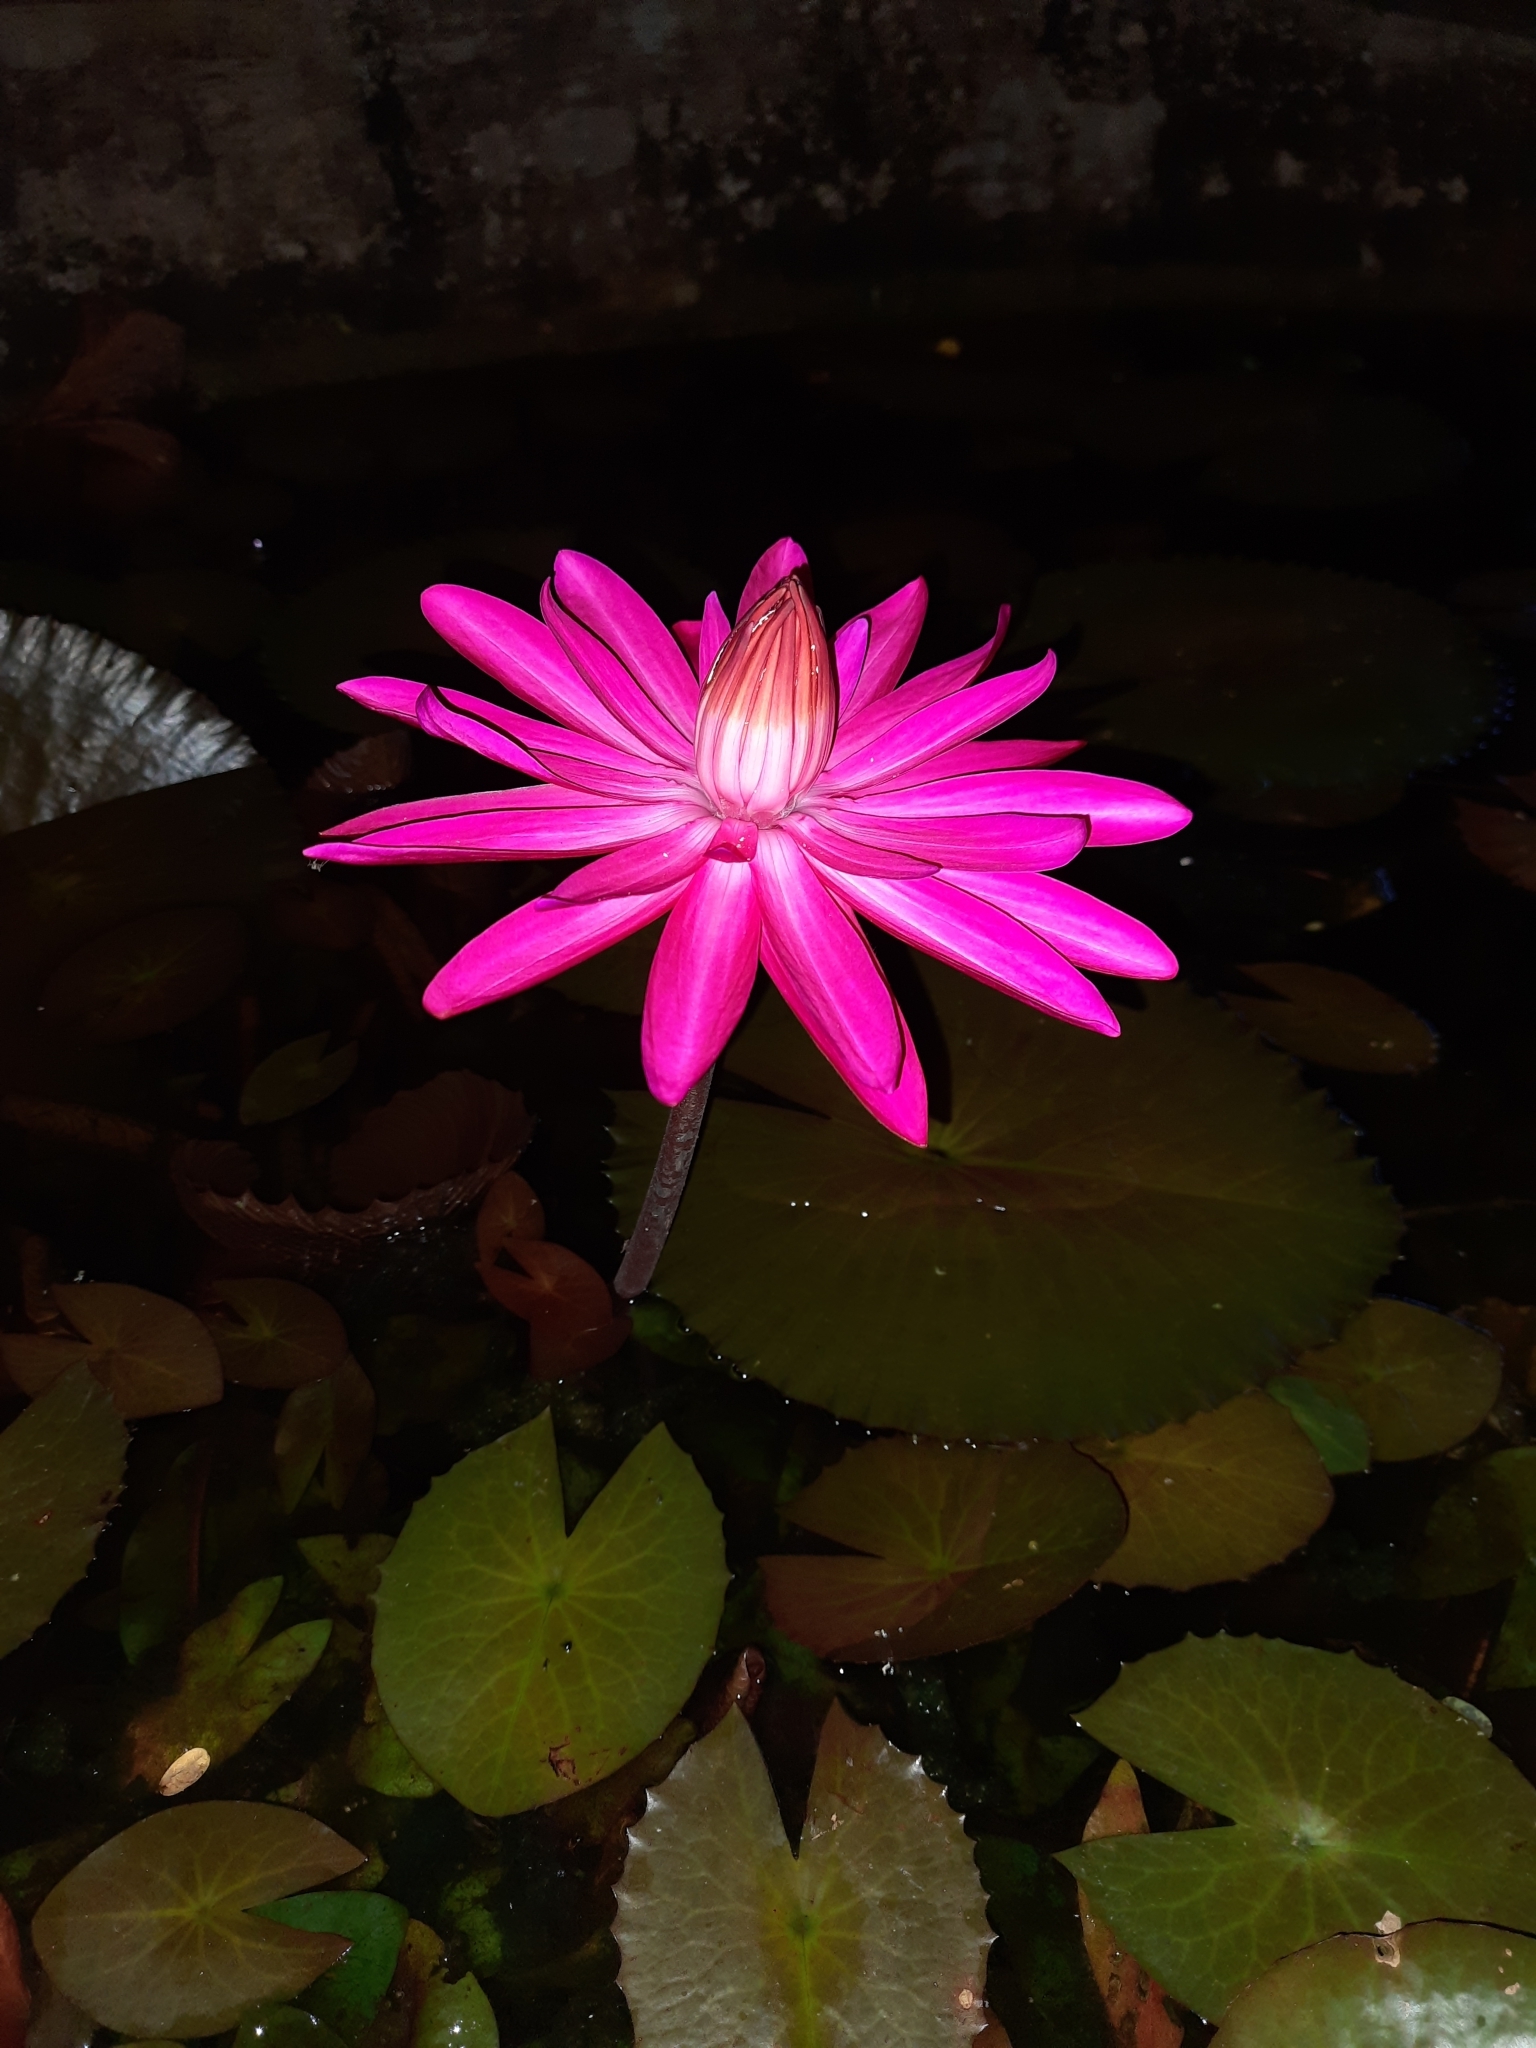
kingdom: Plantae
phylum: Tracheophyta
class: Magnoliopsida
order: Nymphaeales
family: Nymphaeaceae
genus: Nymphaea
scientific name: Nymphaea rubra
